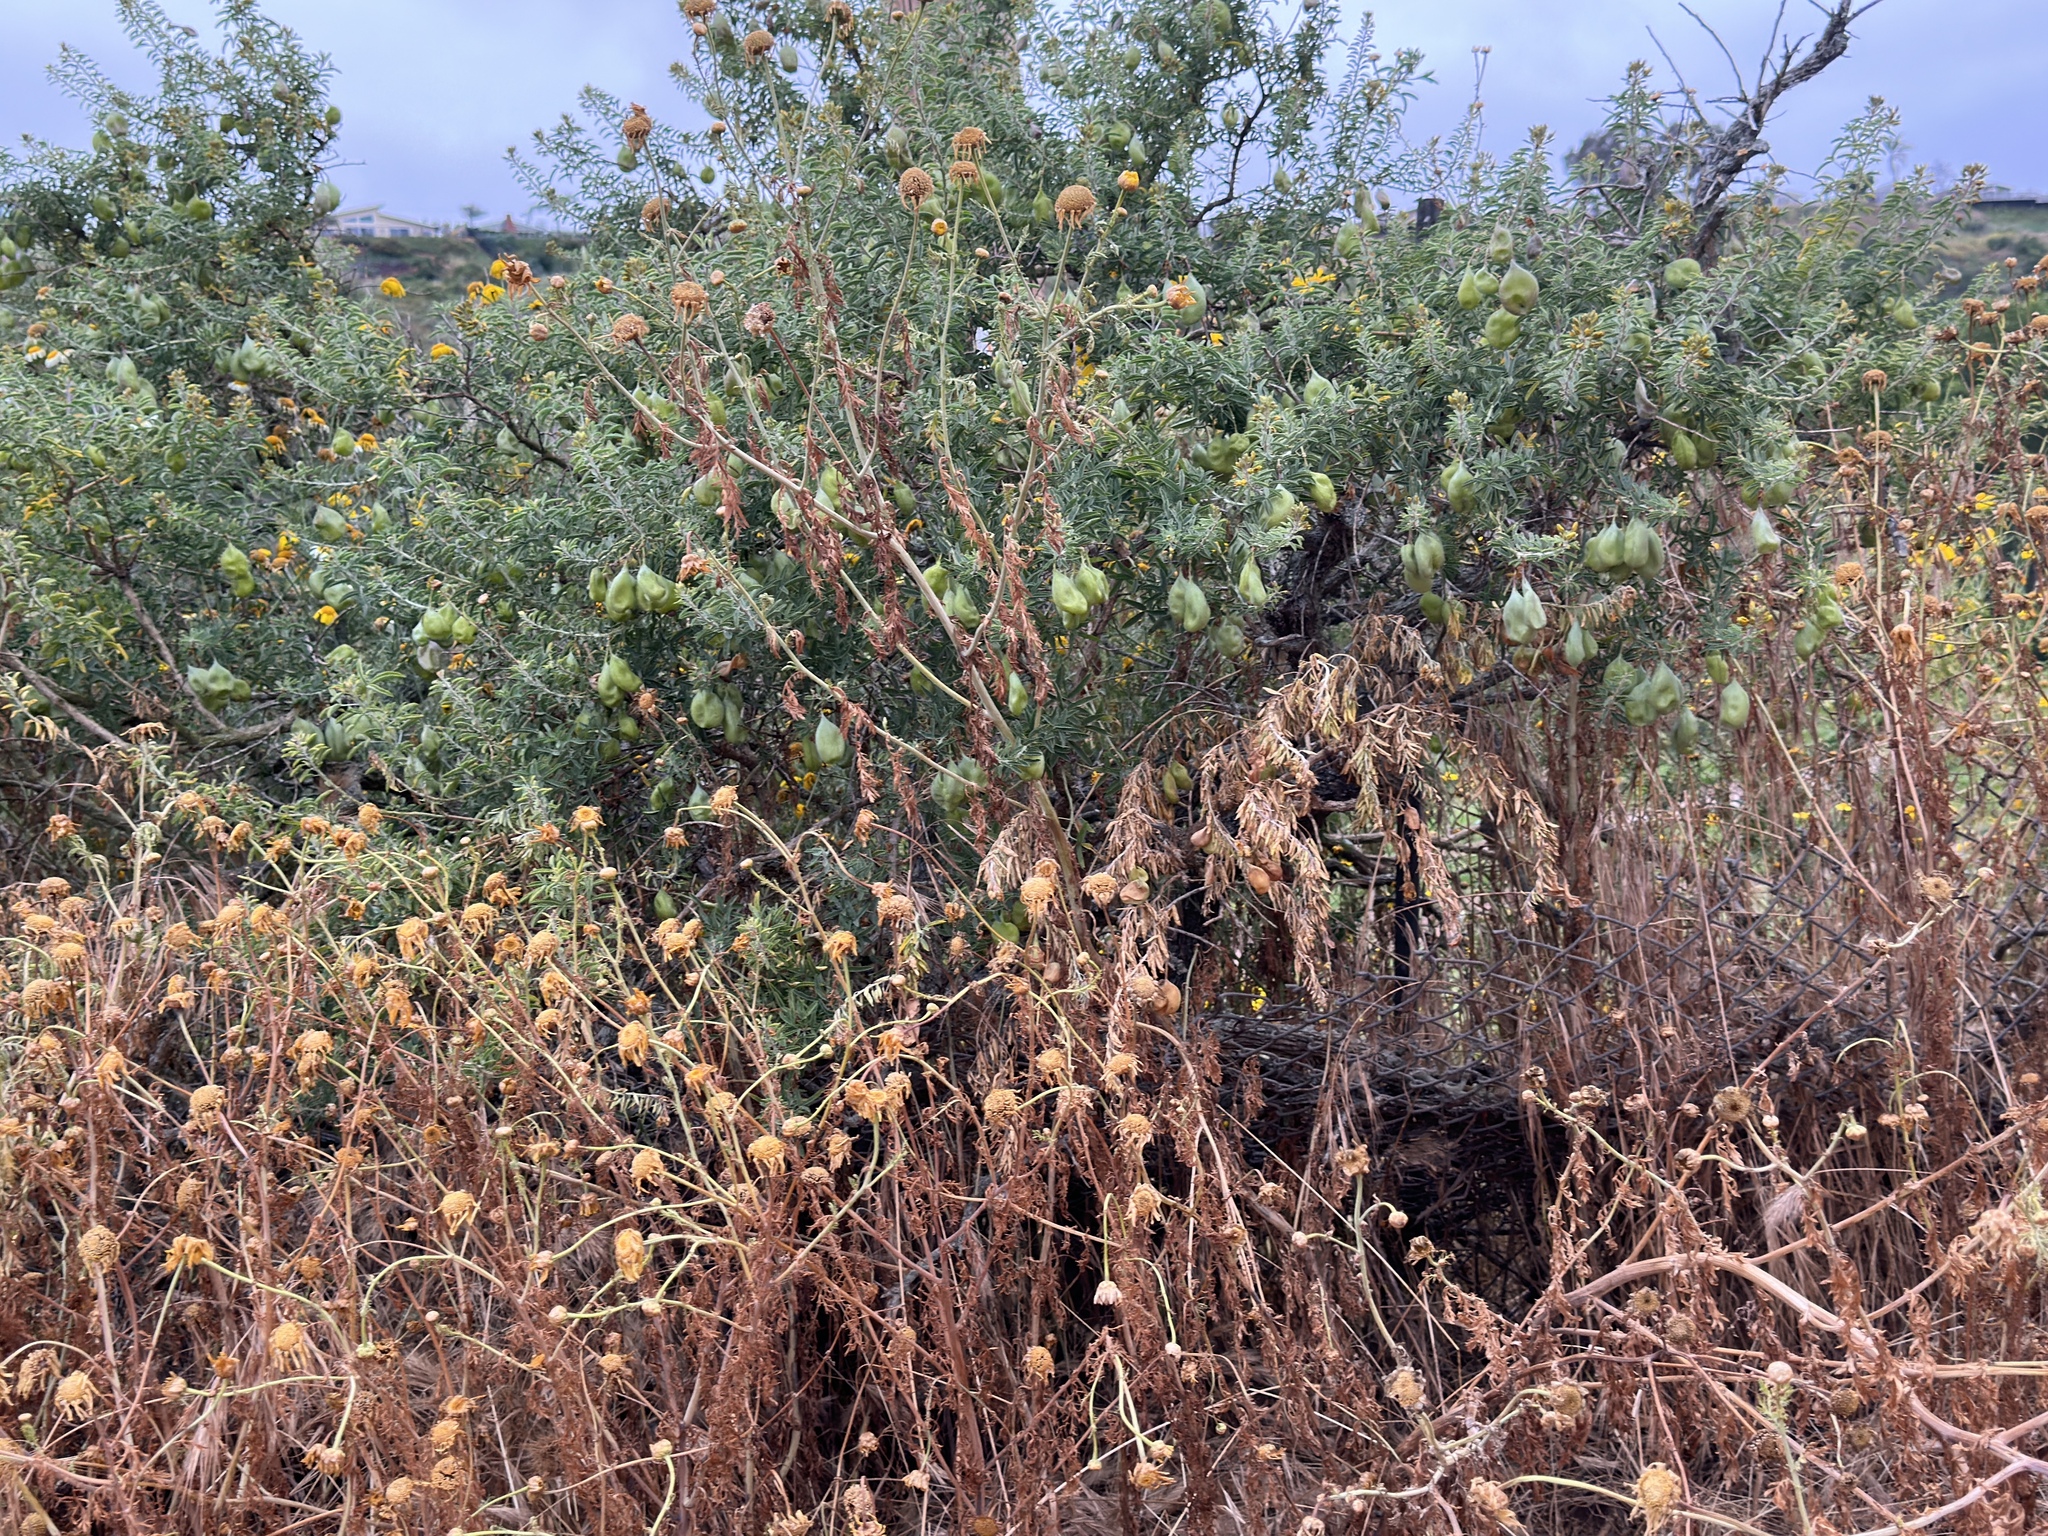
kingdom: Plantae
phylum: Tracheophyta
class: Magnoliopsida
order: Brassicales
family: Cleomaceae
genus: Cleomella
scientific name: Cleomella arborea
